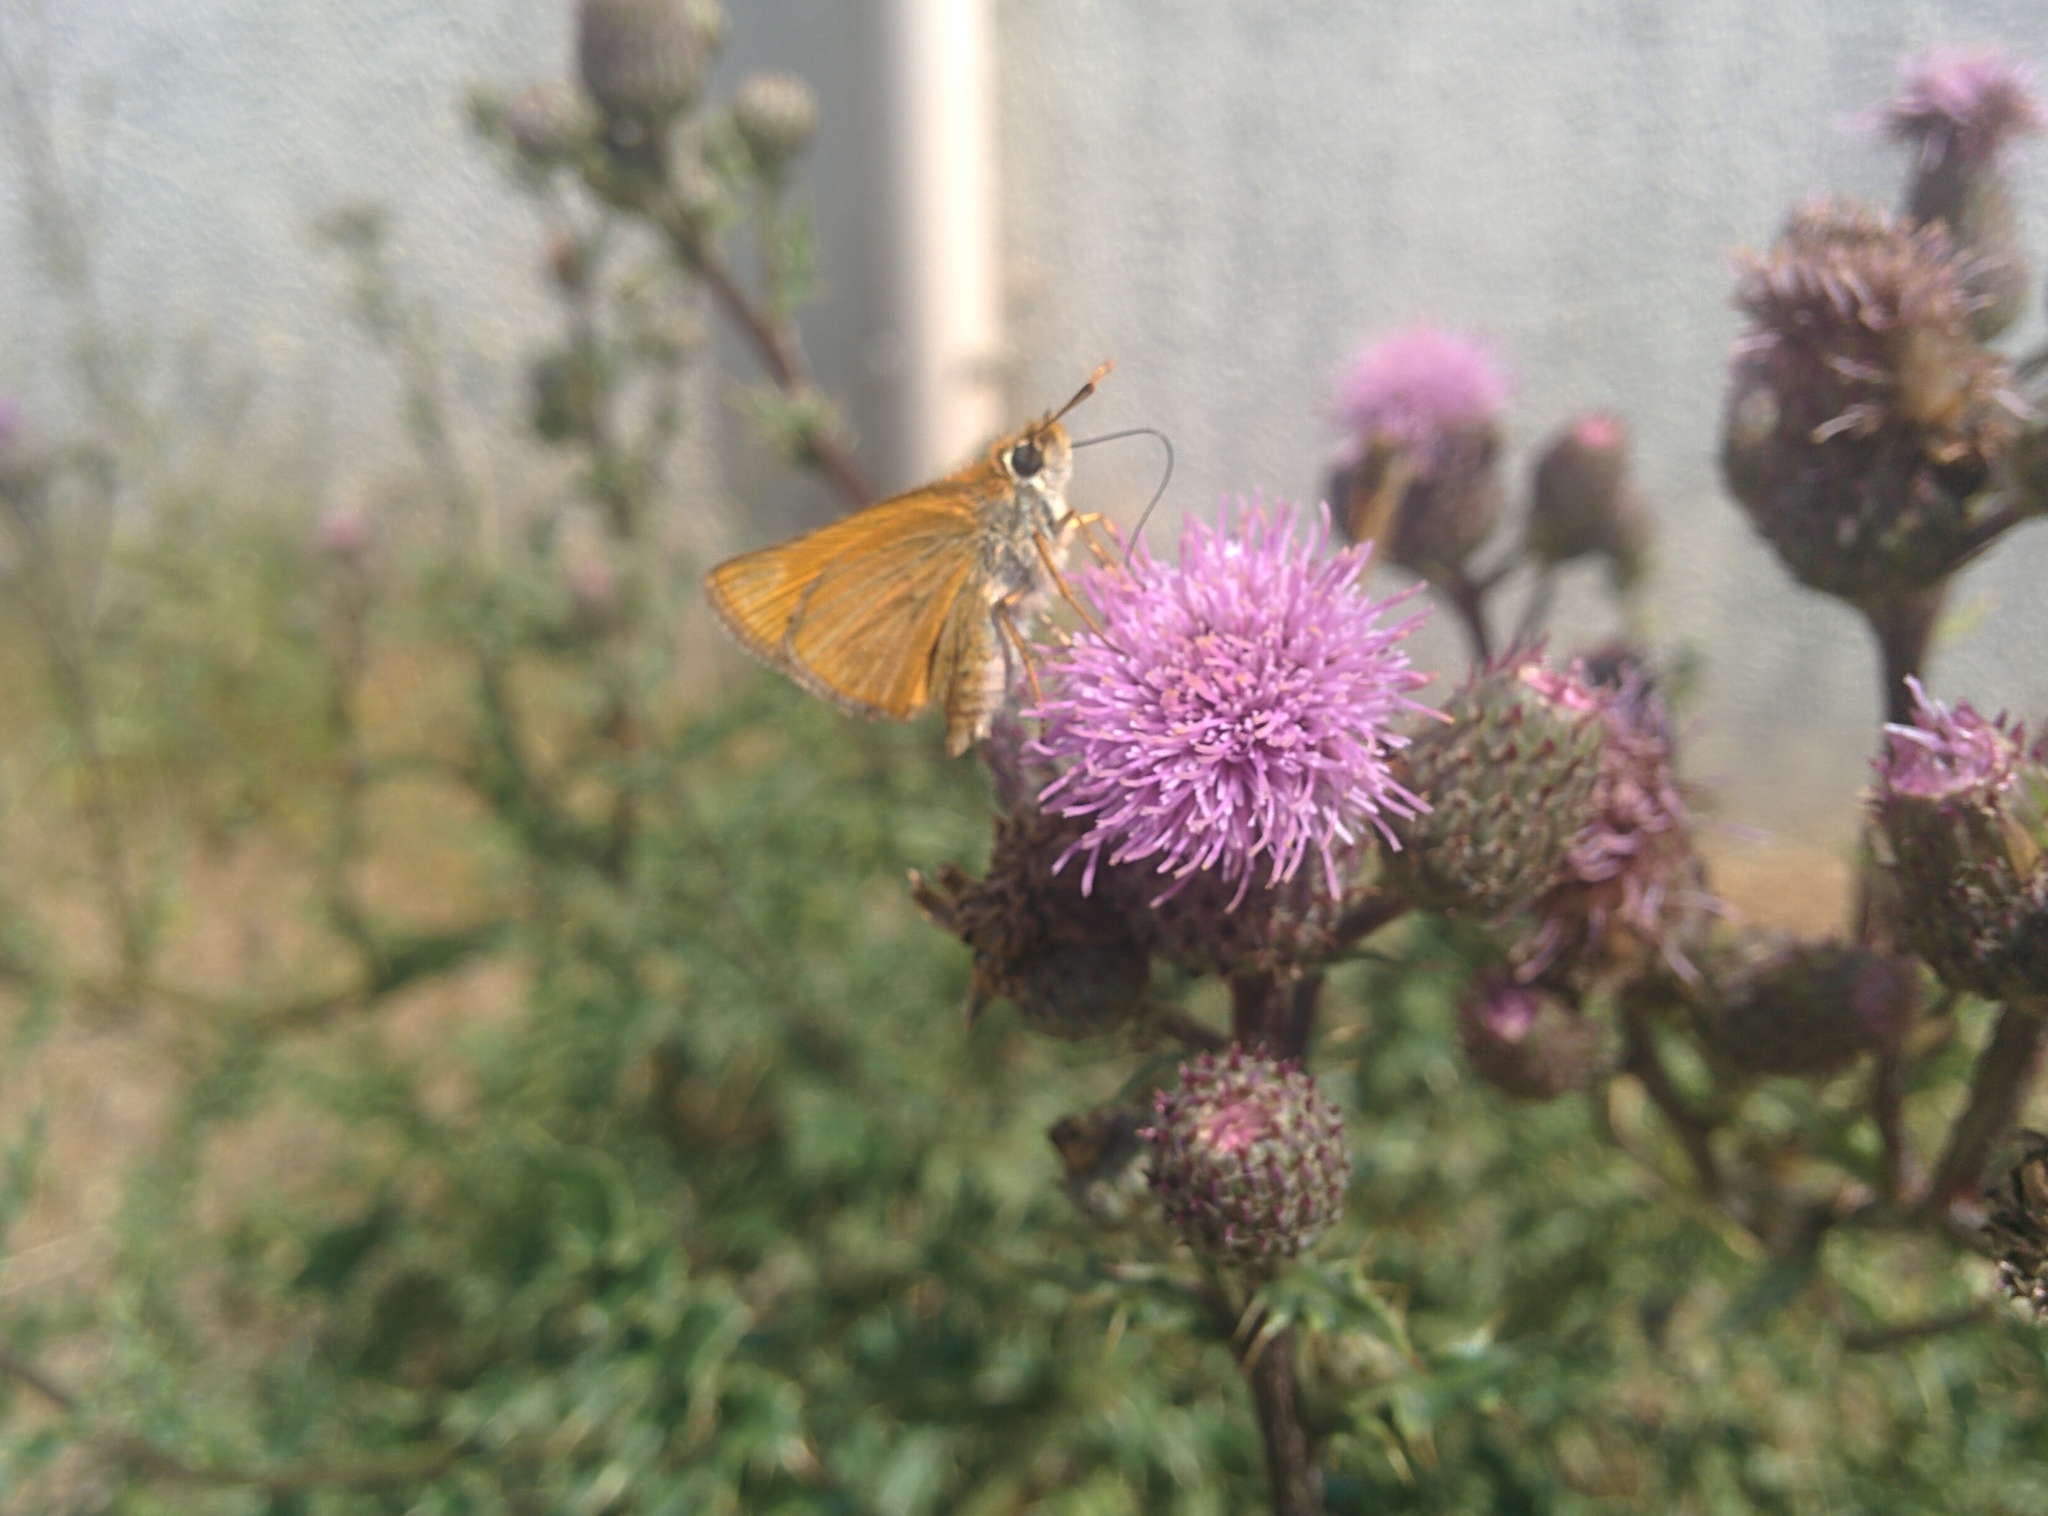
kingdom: Animalia
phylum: Arthropoda
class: Insecta
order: Lepidoptera
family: Hesperiidae
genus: Thymelicus
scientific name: Thymelicus acteon
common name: Lulworth skipper
